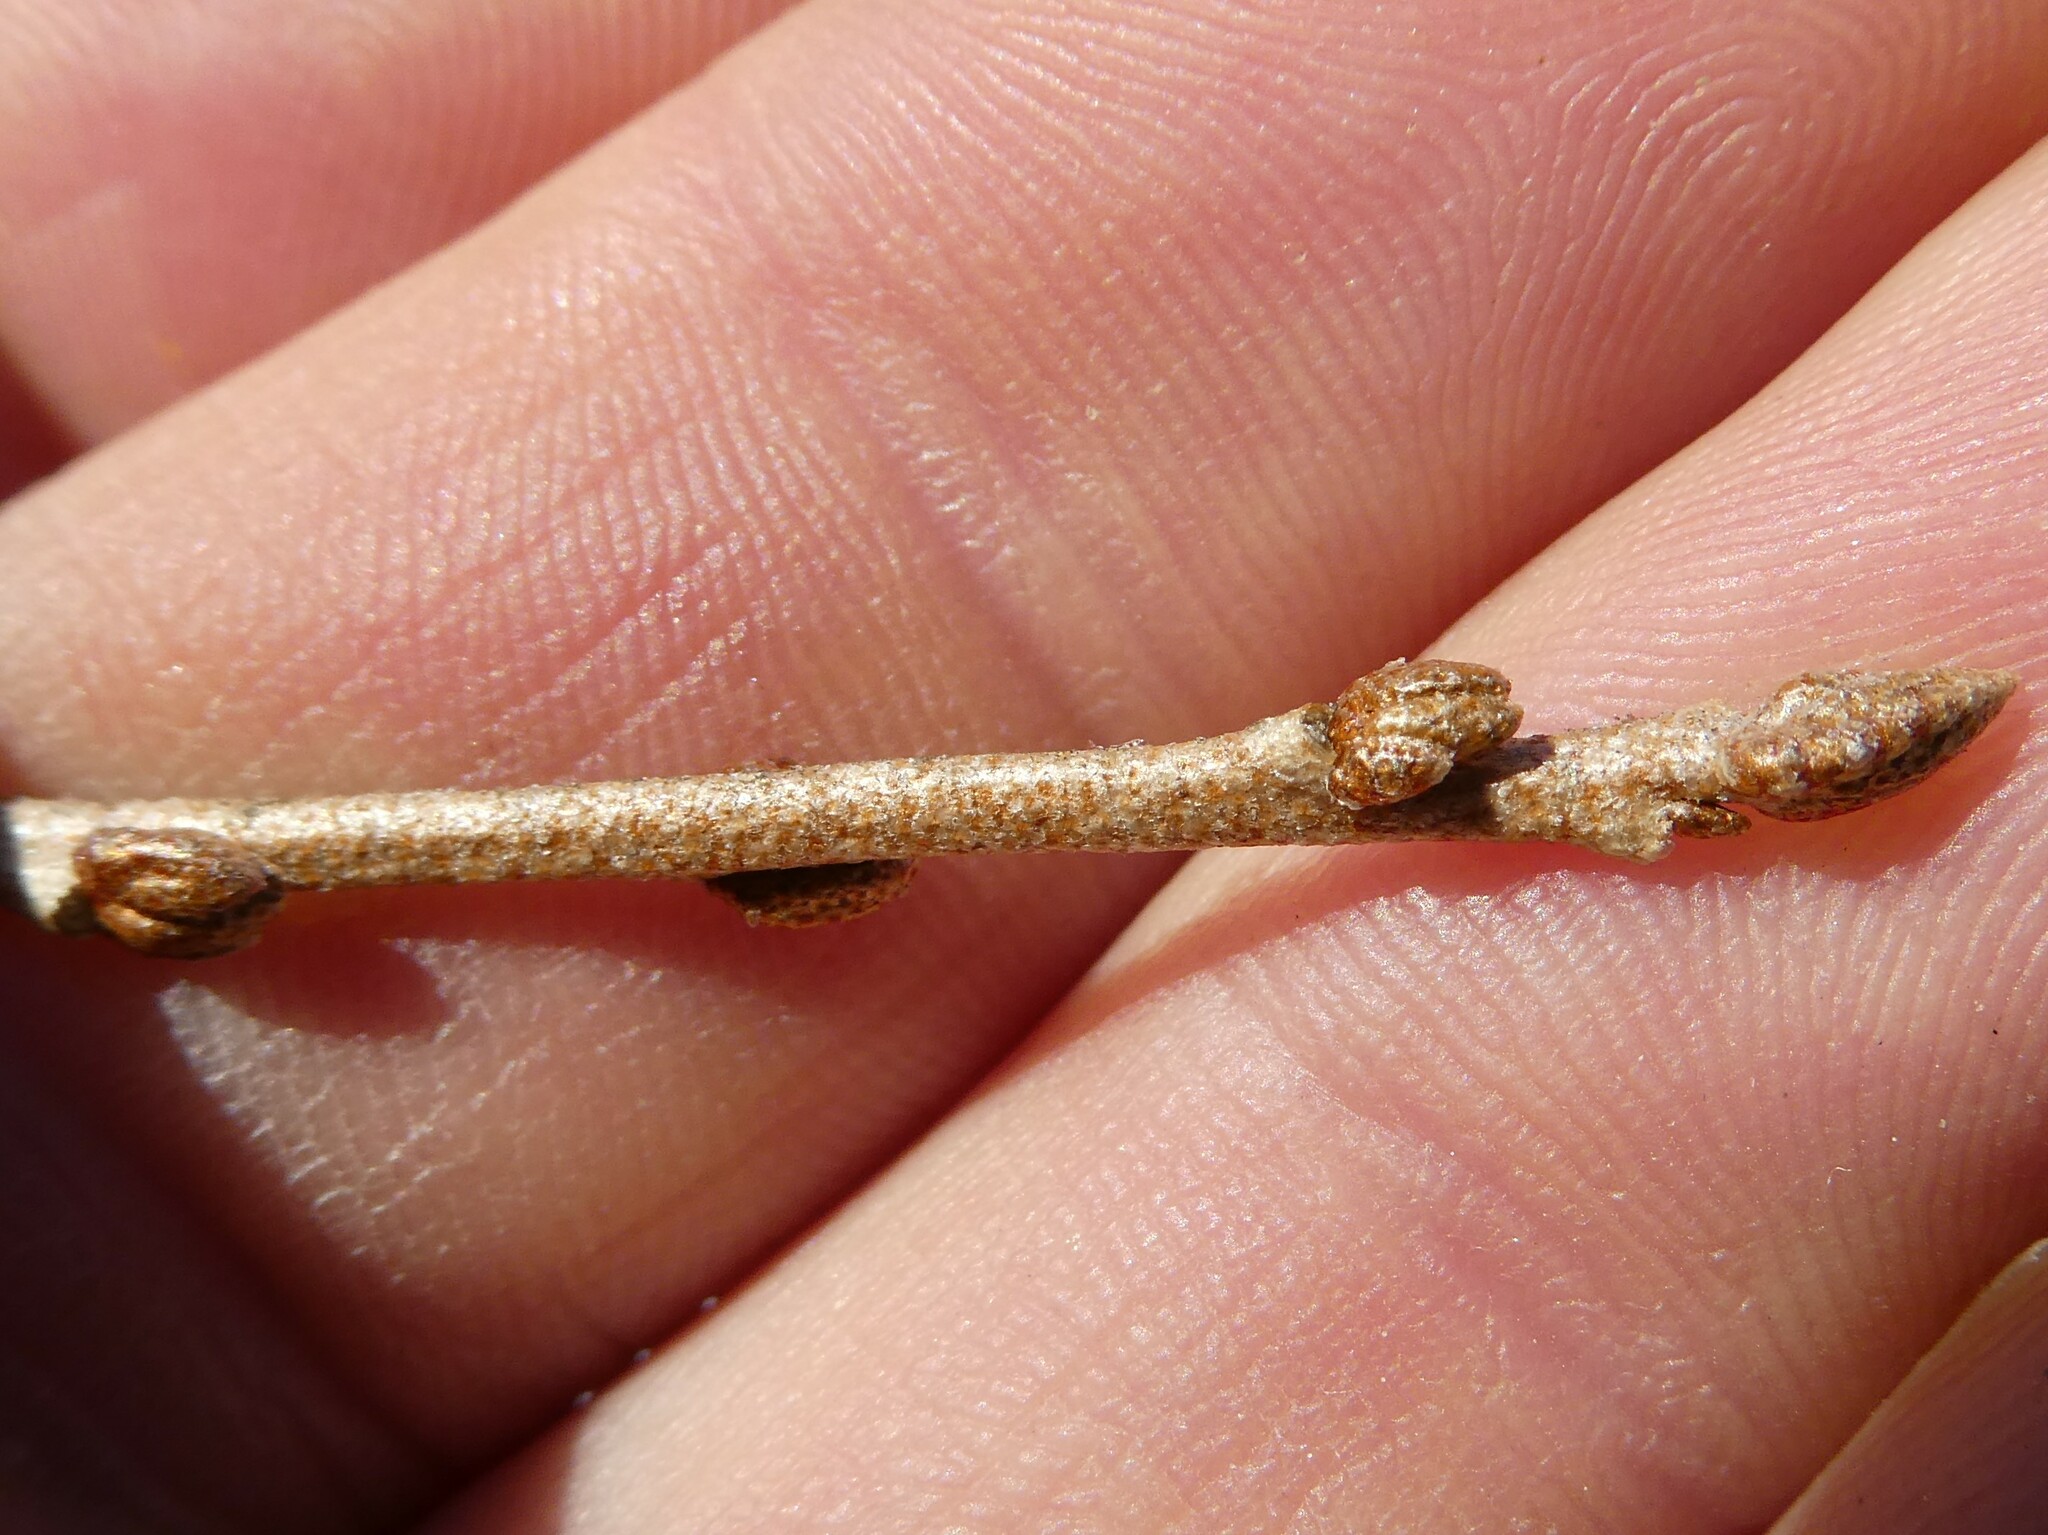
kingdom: Plantae
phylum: Tracheophyta
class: Magnoliopsida
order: Rosales
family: Elaeagnaceae
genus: Elaeagnus
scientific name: Elaeagnus umbellata
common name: Autumn olive
